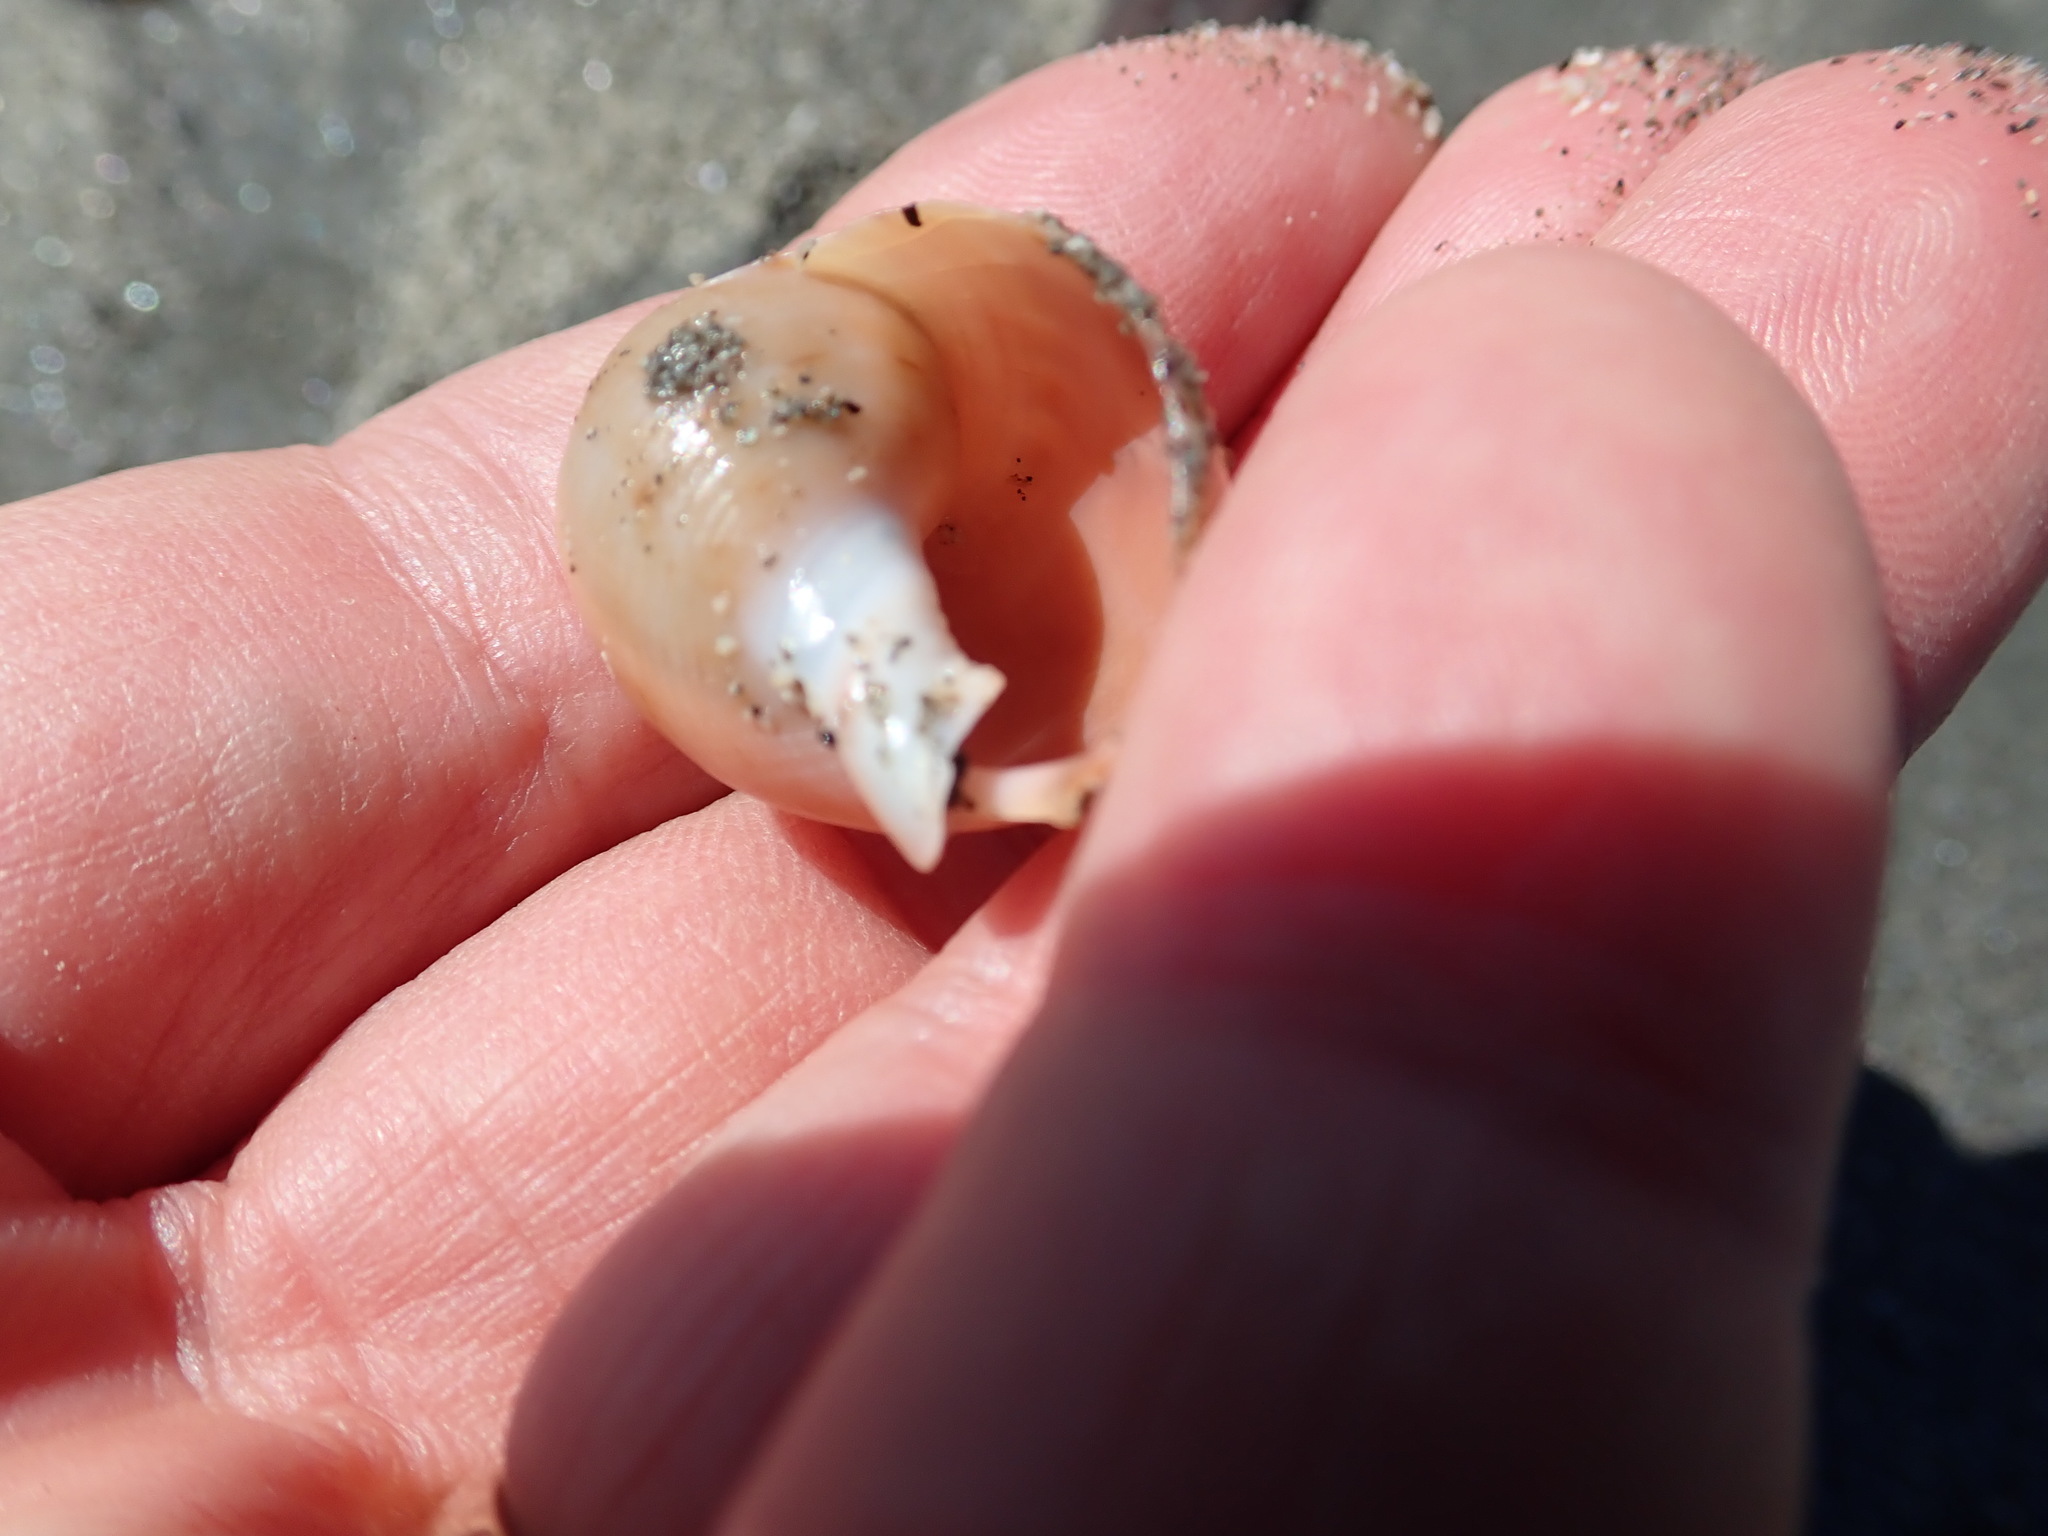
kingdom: Animalia
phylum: Mollusca
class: Gastropoda
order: Littorinimorpha
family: Cassidae
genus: Semicassis
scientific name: Semicassis pyrum
